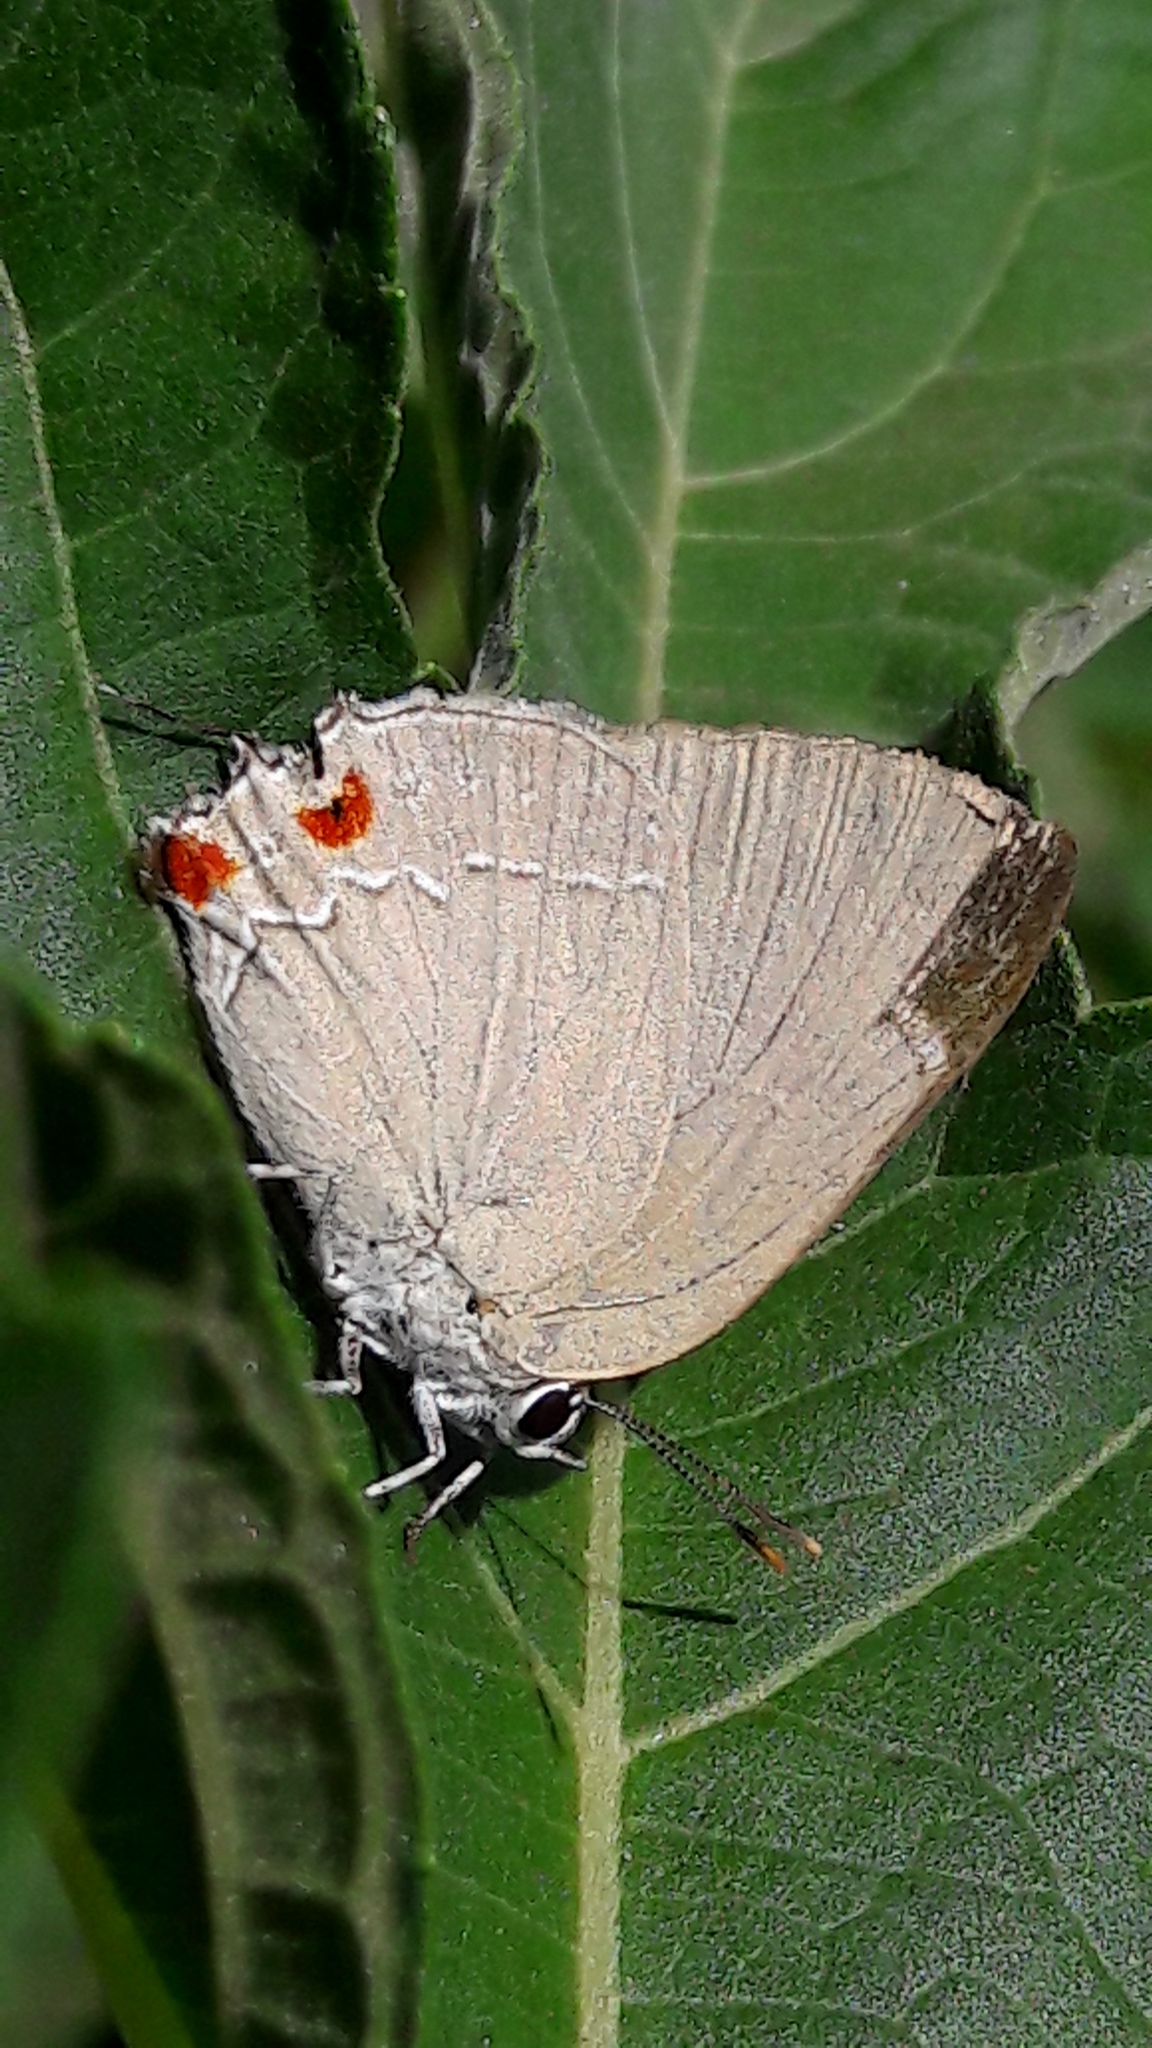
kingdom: Animalia
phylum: Arthropoda
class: Insecta
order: Lepidoptera
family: Lycaenidae
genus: Thecla
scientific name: Thecla ergina
